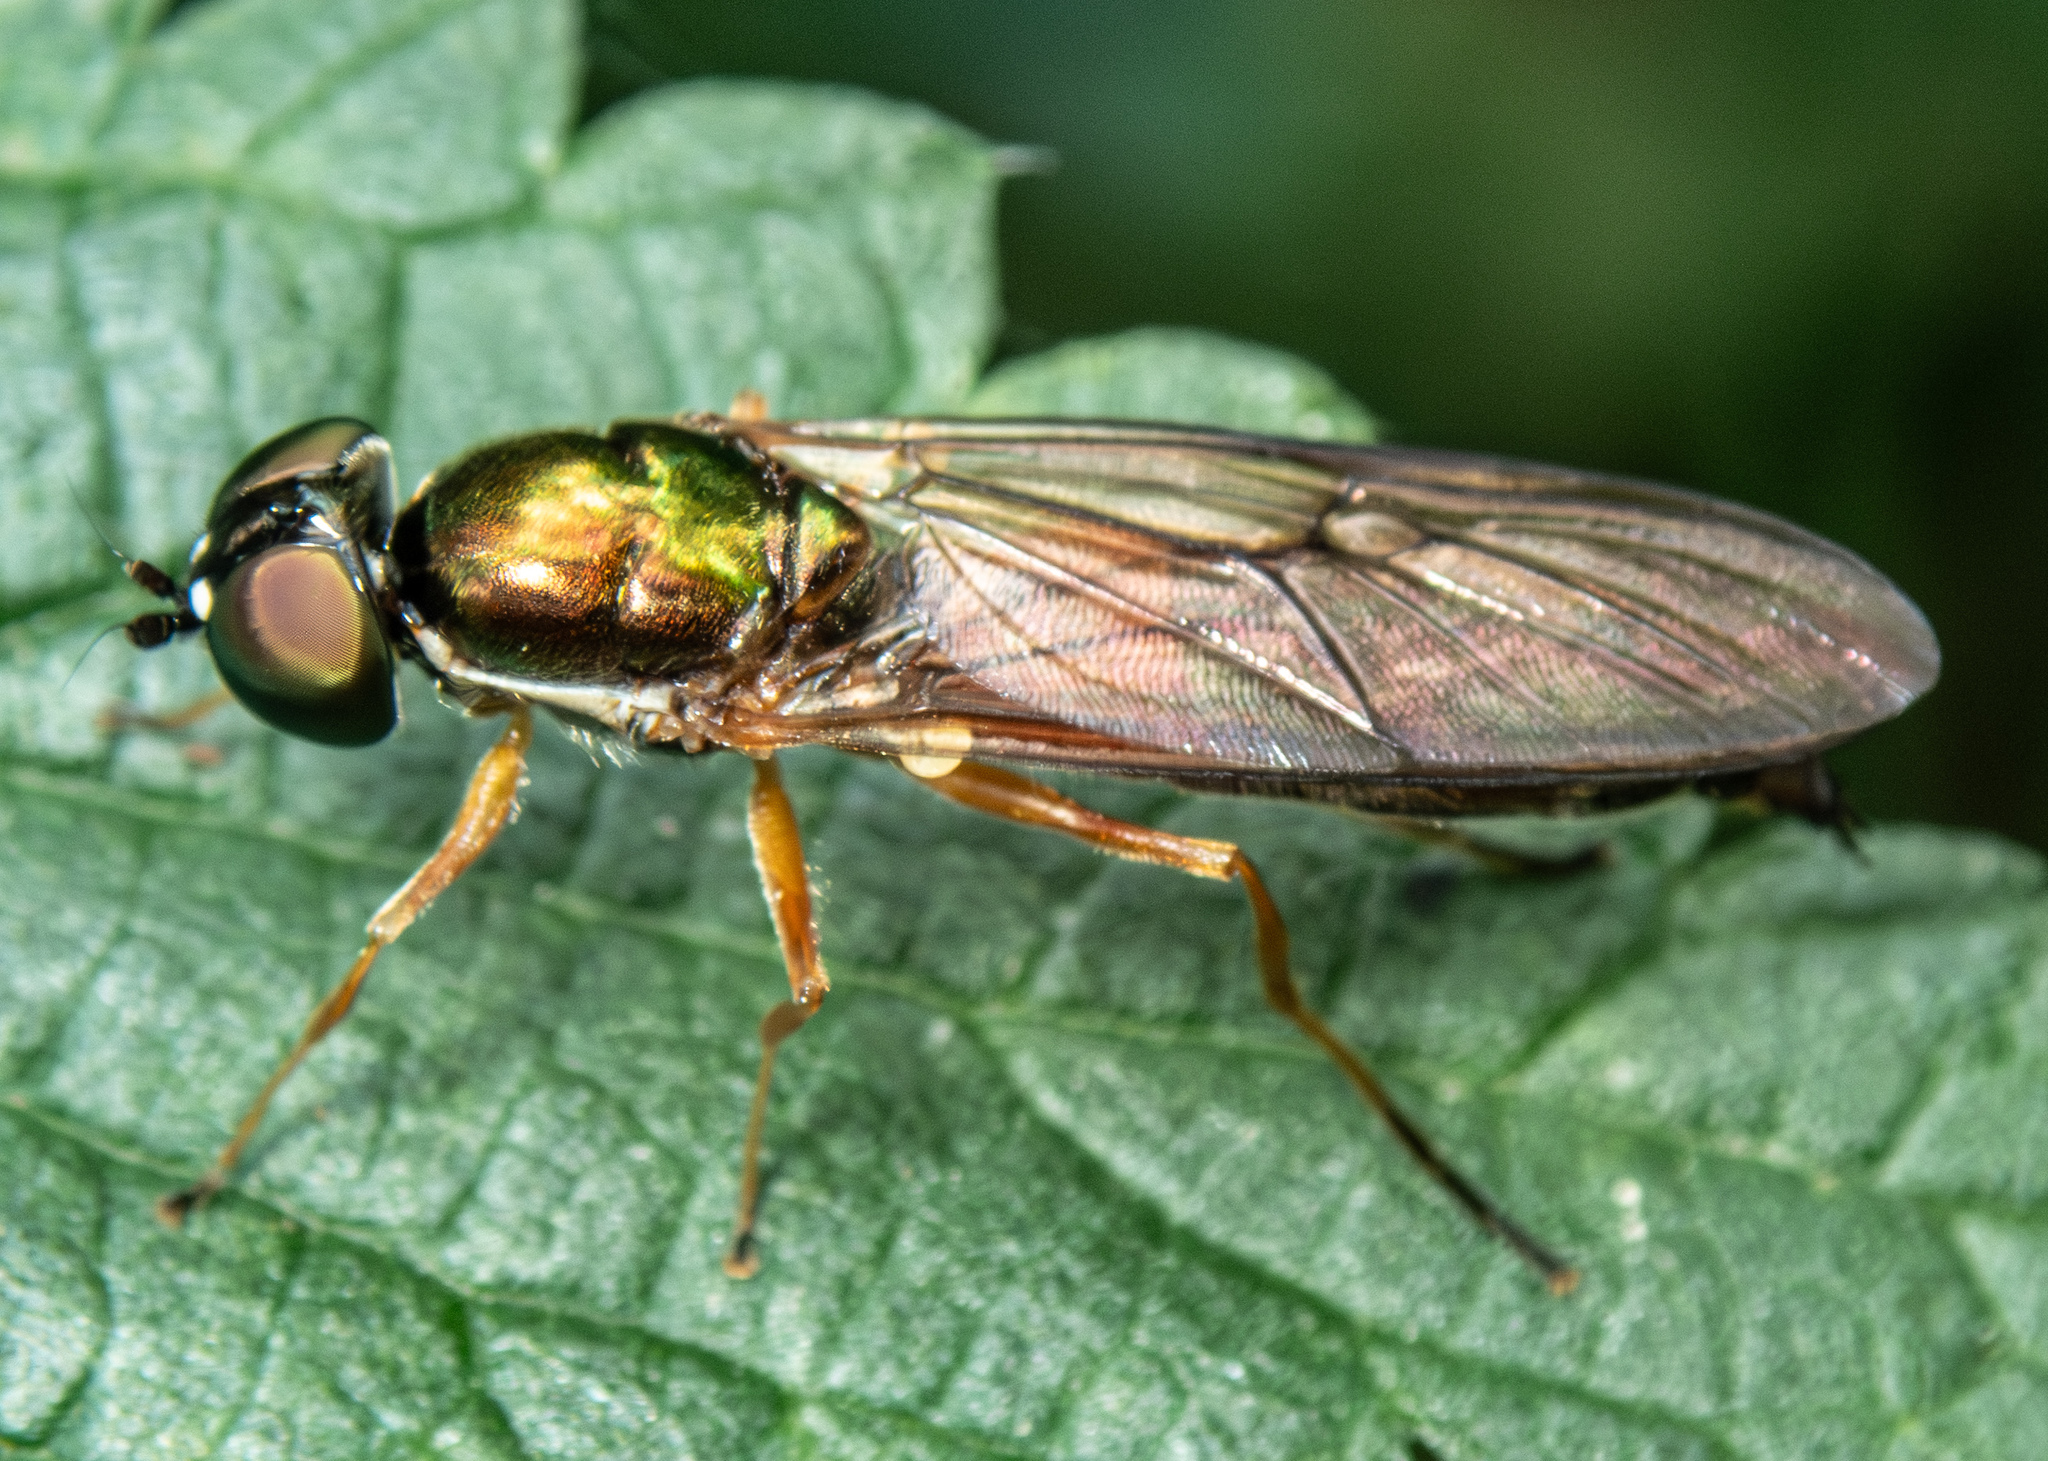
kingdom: Animalia
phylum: Arthropoda
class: Insecta
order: Diptera
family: Stratiomyidae
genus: Sargus
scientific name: Sargus bipunctatus
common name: Twin-spot centurion
